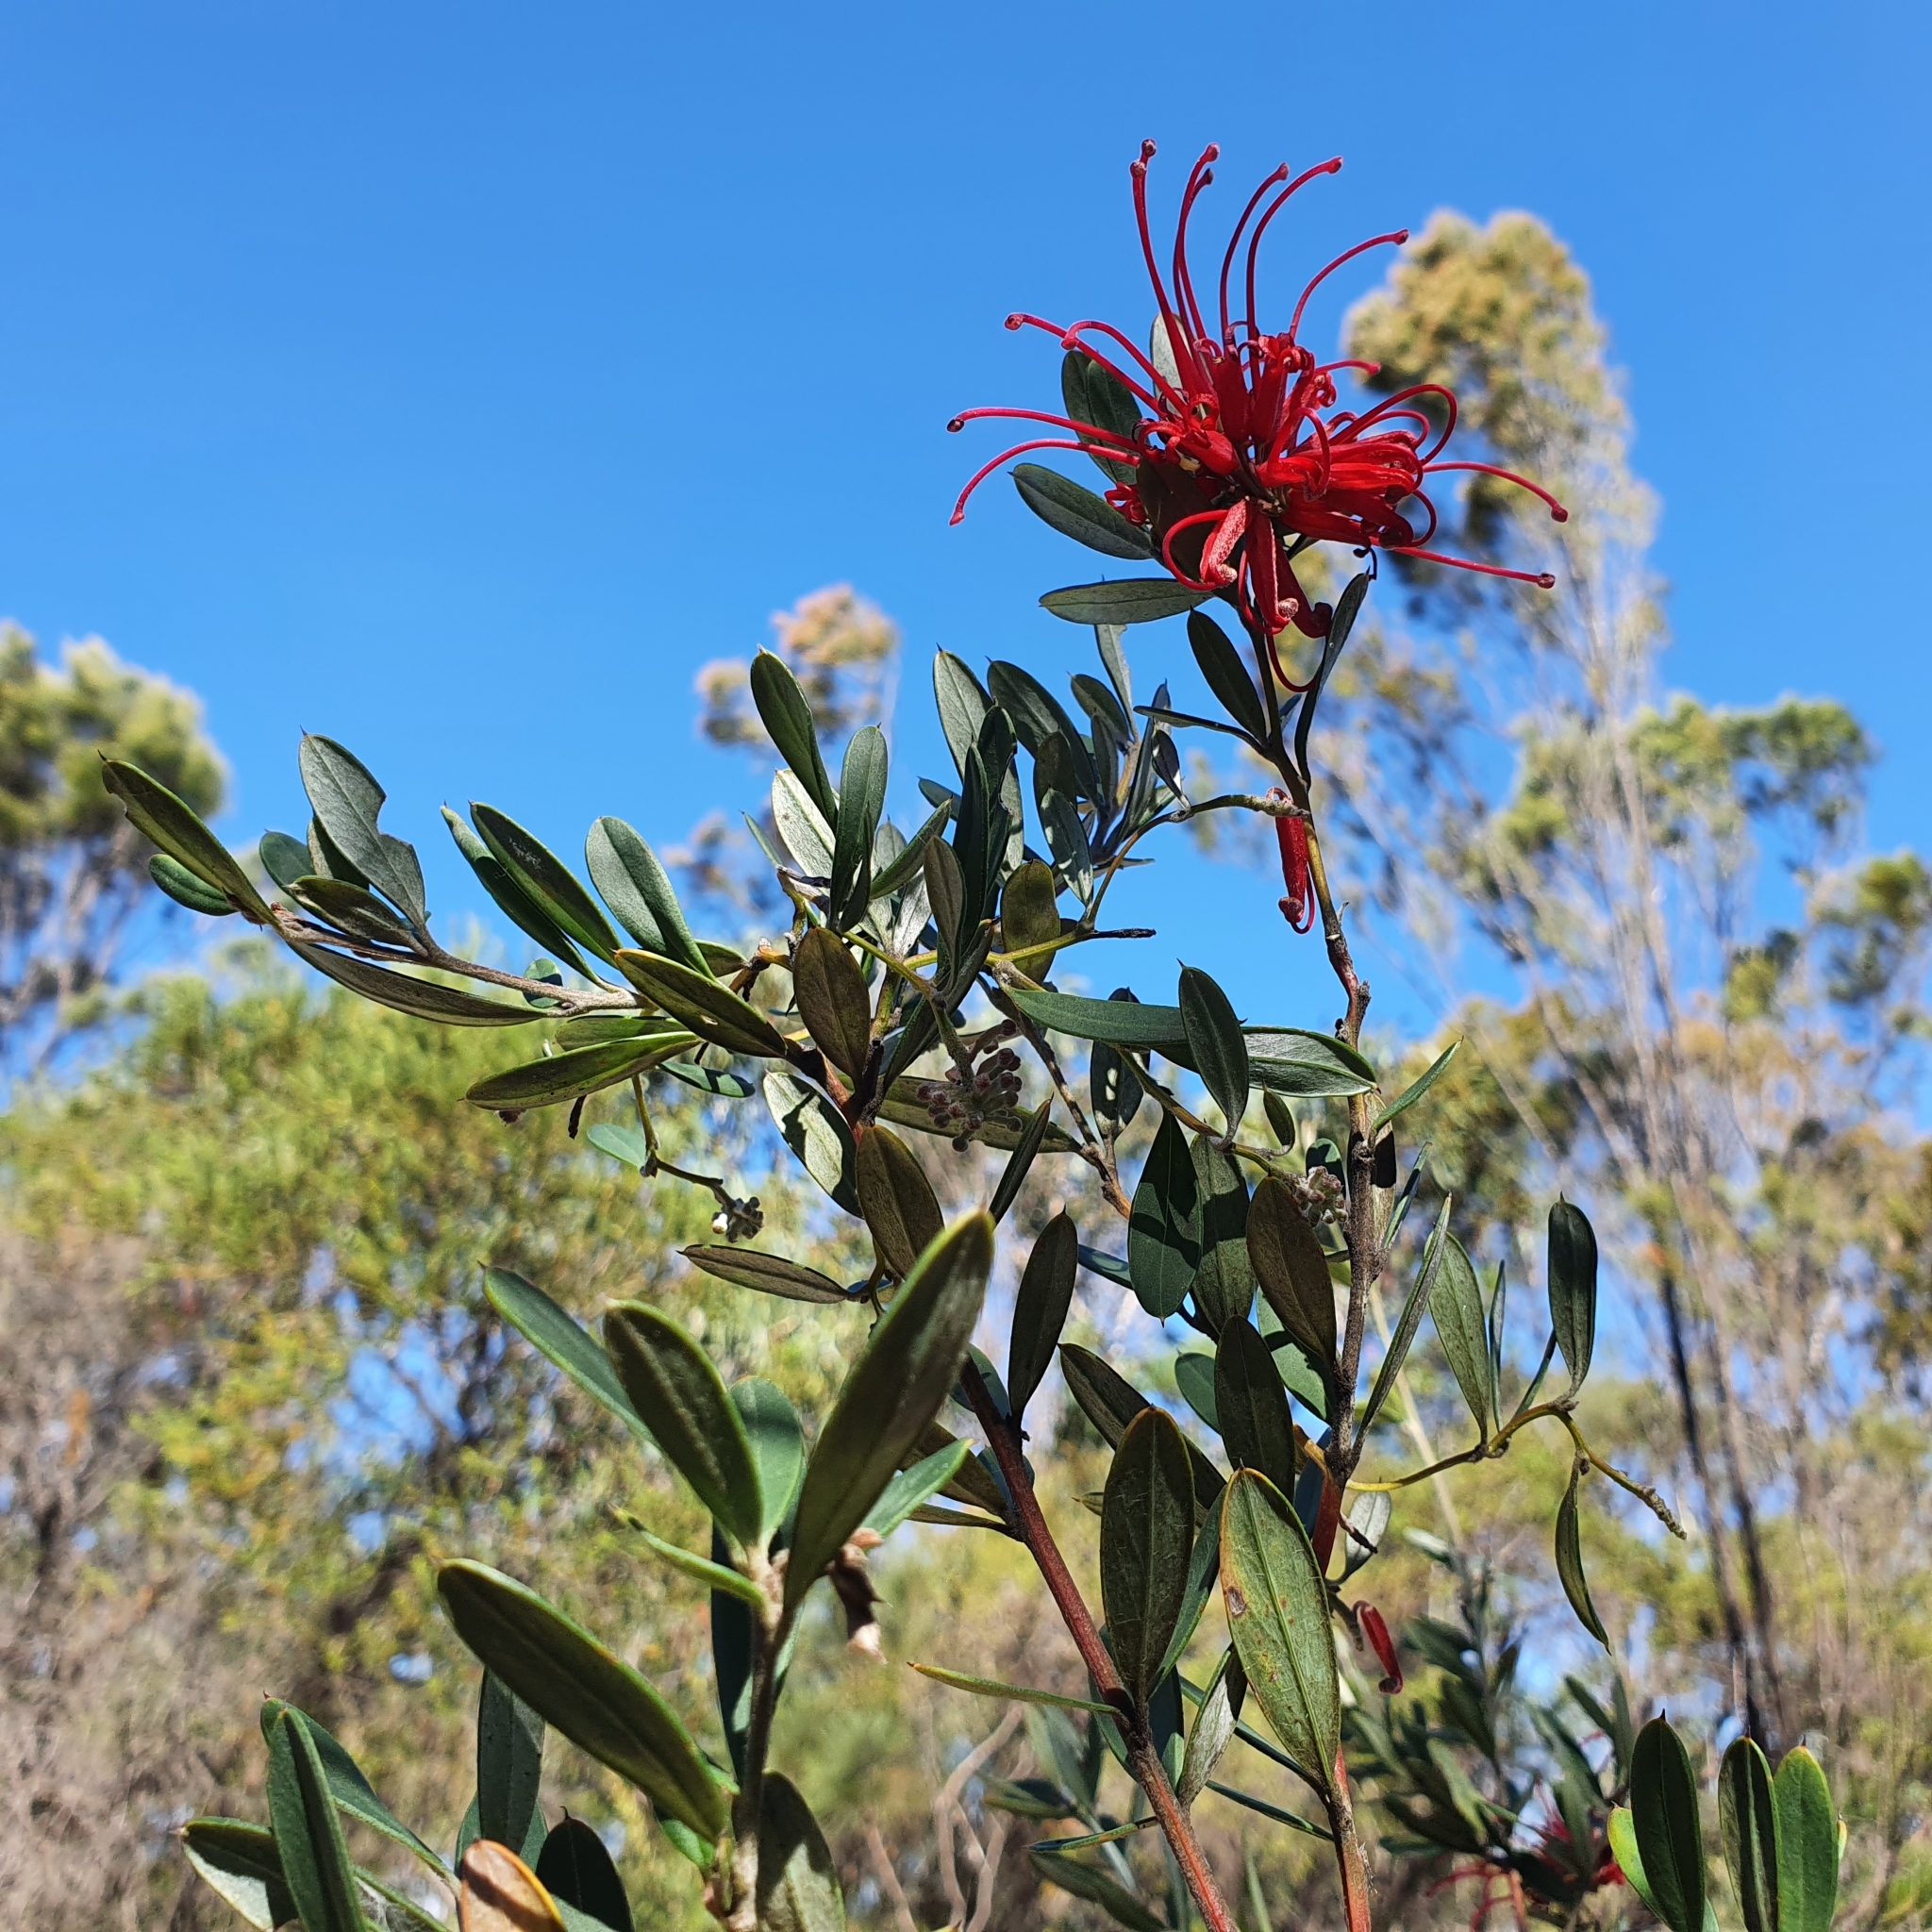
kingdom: Plantae
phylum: Tracheophyta
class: Magnoliopsida
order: Proteales
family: Proteaceae
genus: Grevillea
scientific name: Grevillea speciosa
